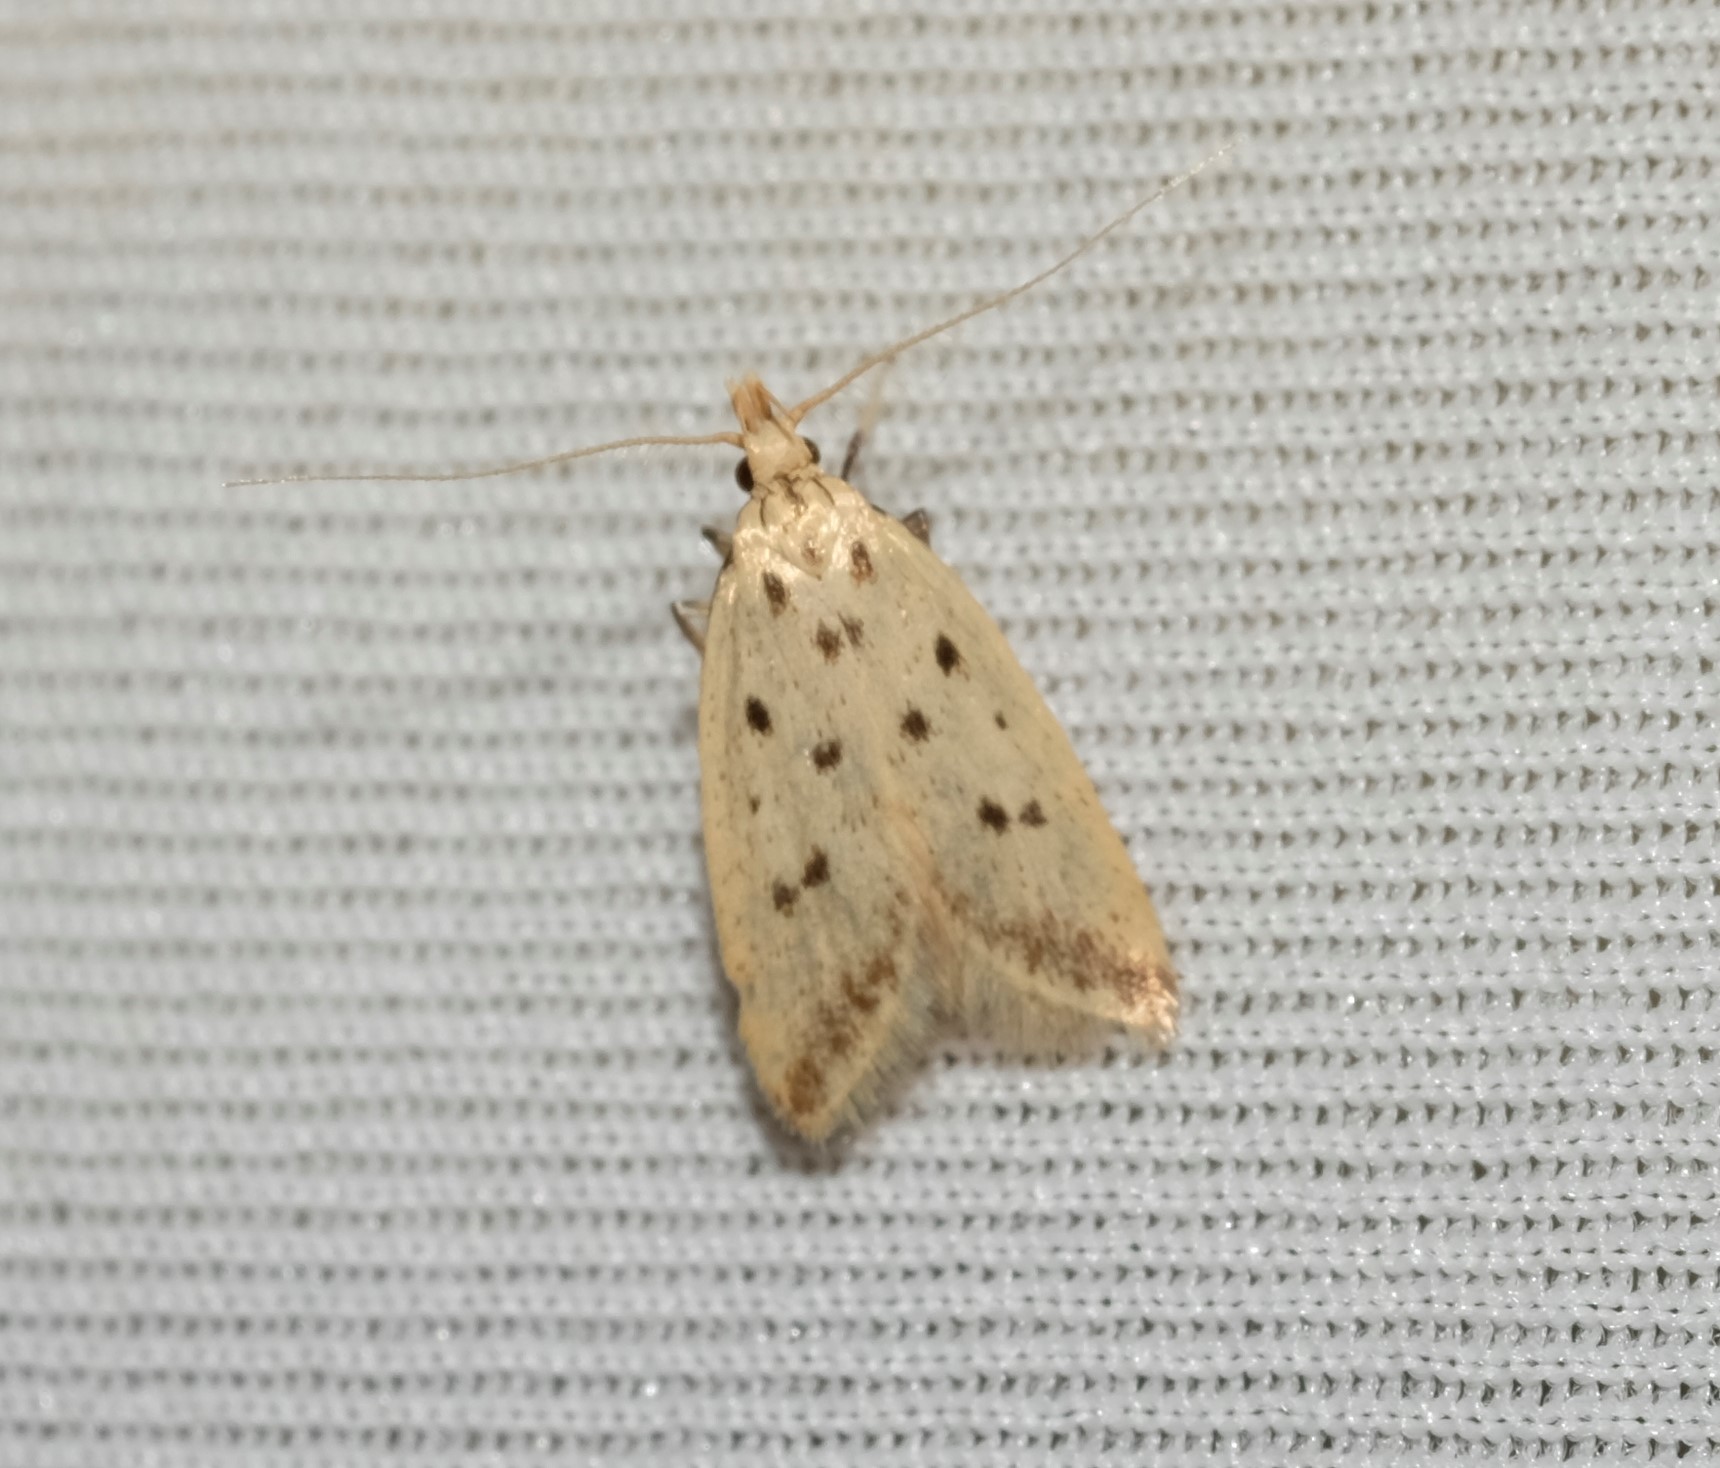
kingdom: Animalia
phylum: Arthropoda
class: Insecta
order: Lepidoptera
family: Oecophoridae
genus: Atheropla
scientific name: Atheropla psammodes
